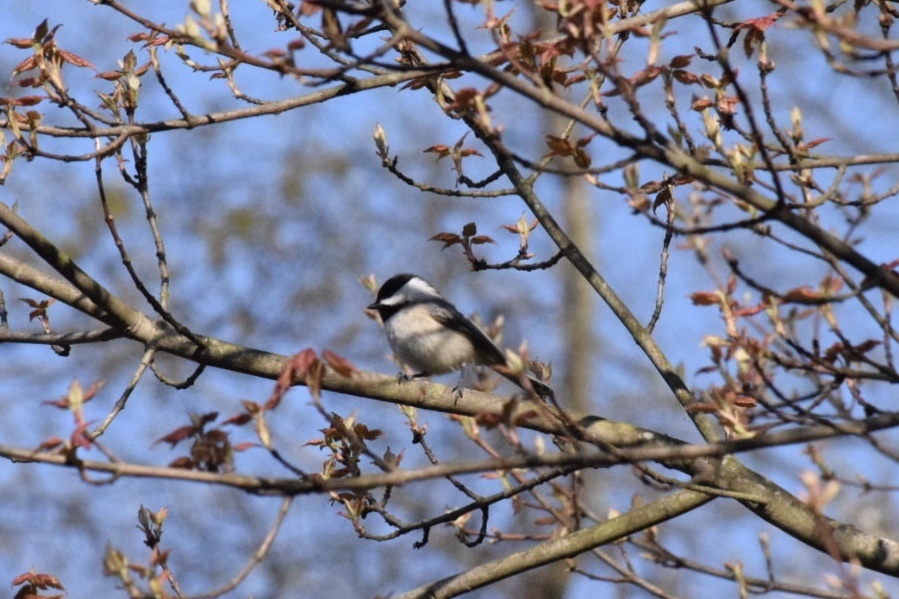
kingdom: Animalia
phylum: Chordata
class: Aves
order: Passeriformes
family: Paridae
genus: Poecile
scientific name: Poecile
